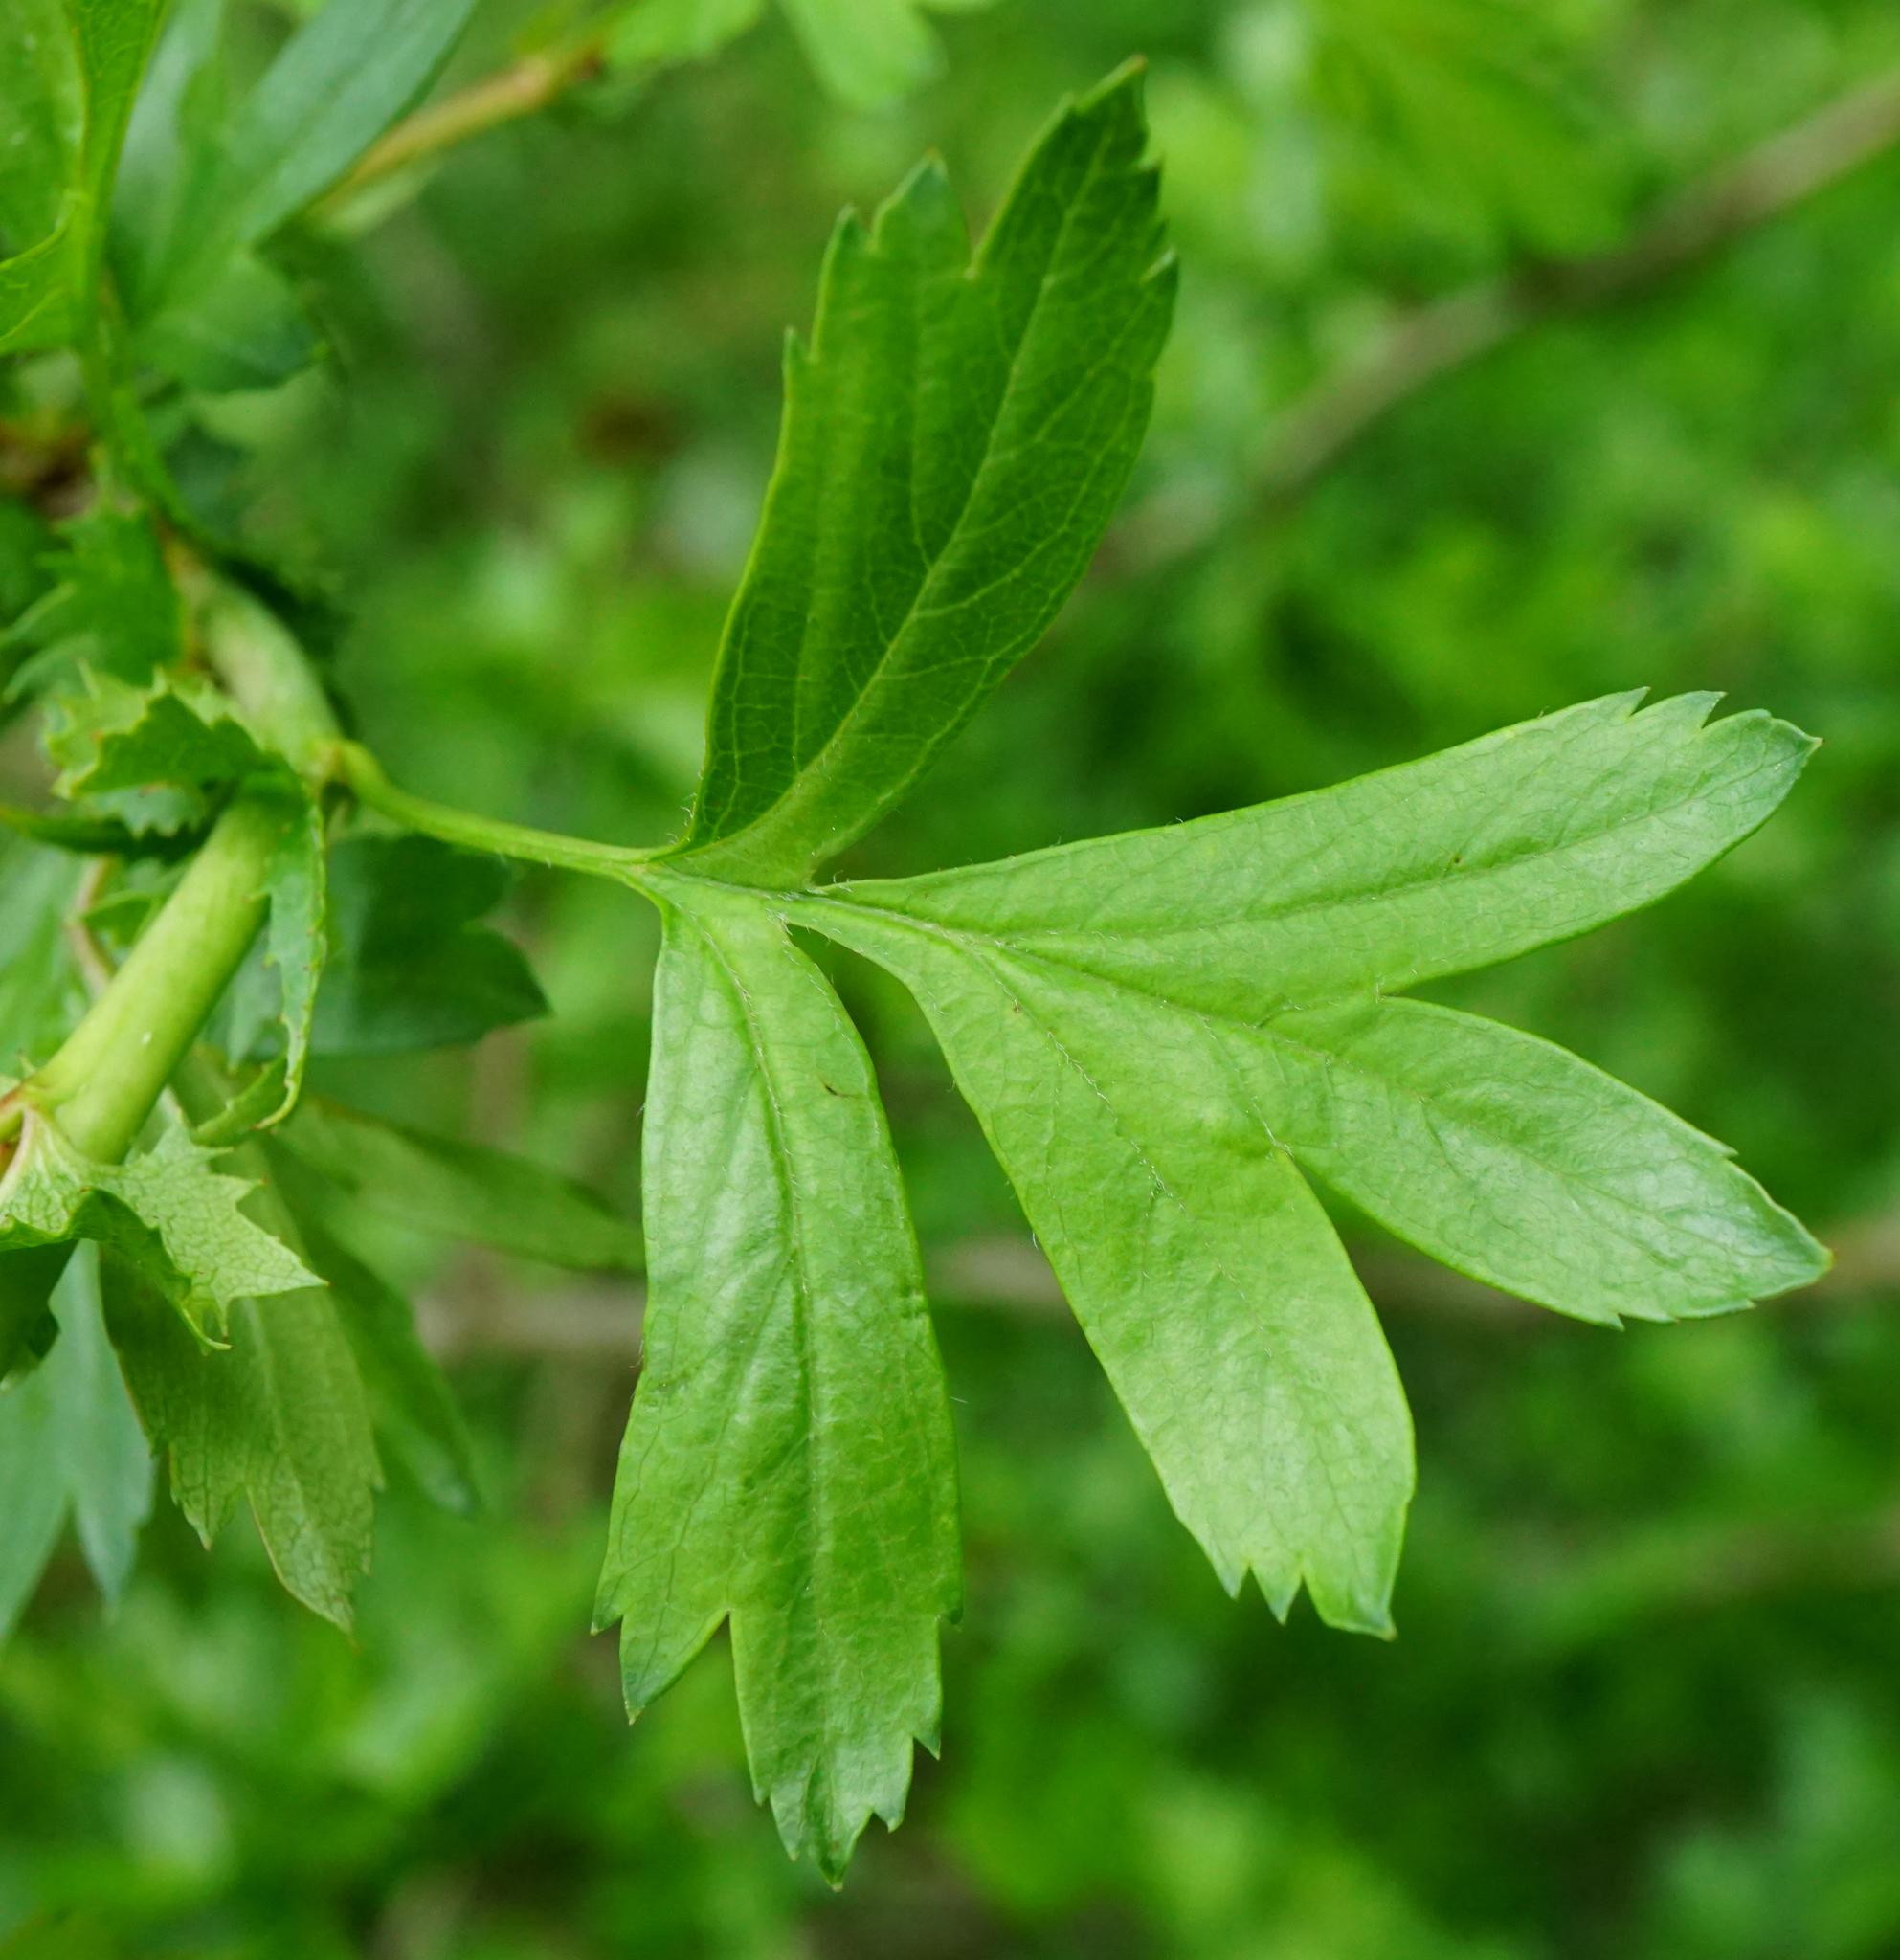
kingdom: Plantae
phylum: Tracheophyta
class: Magnoliopsida
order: Rosales
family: Rosaceae
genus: Crataegus
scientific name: Crataegus monogyna
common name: Hawthorn
